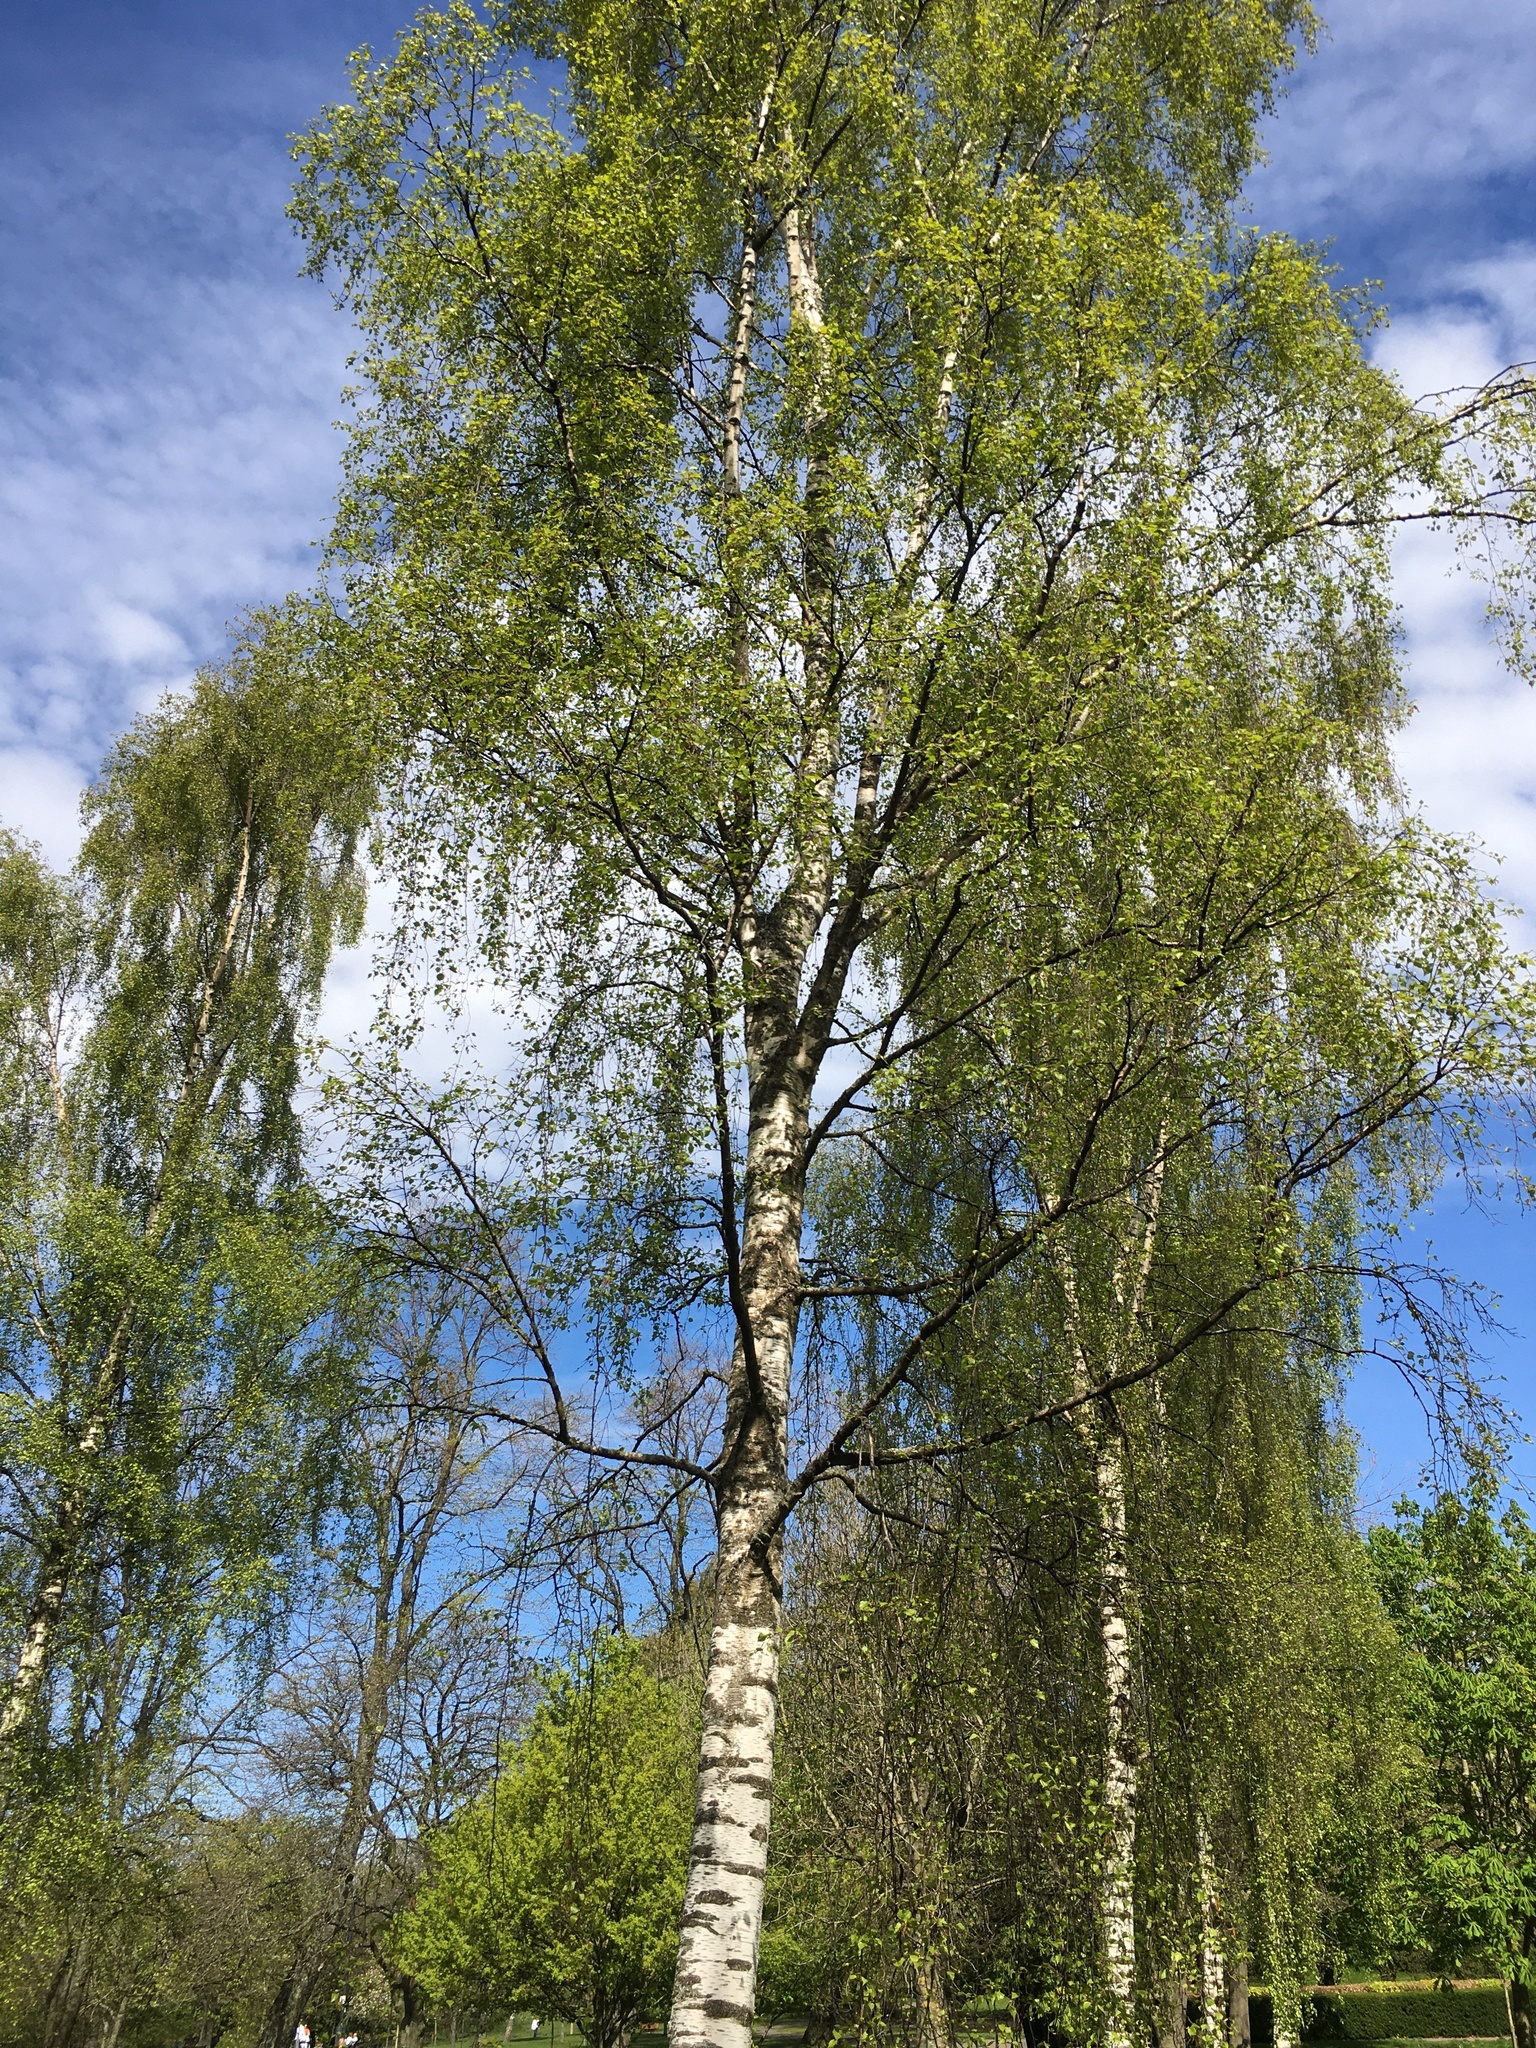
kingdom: Plantae
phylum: Tracheophyta
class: Magnoliopsida
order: Fagales
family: Betulaceae
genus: Betula
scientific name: Betula pendula
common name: Silver birch
